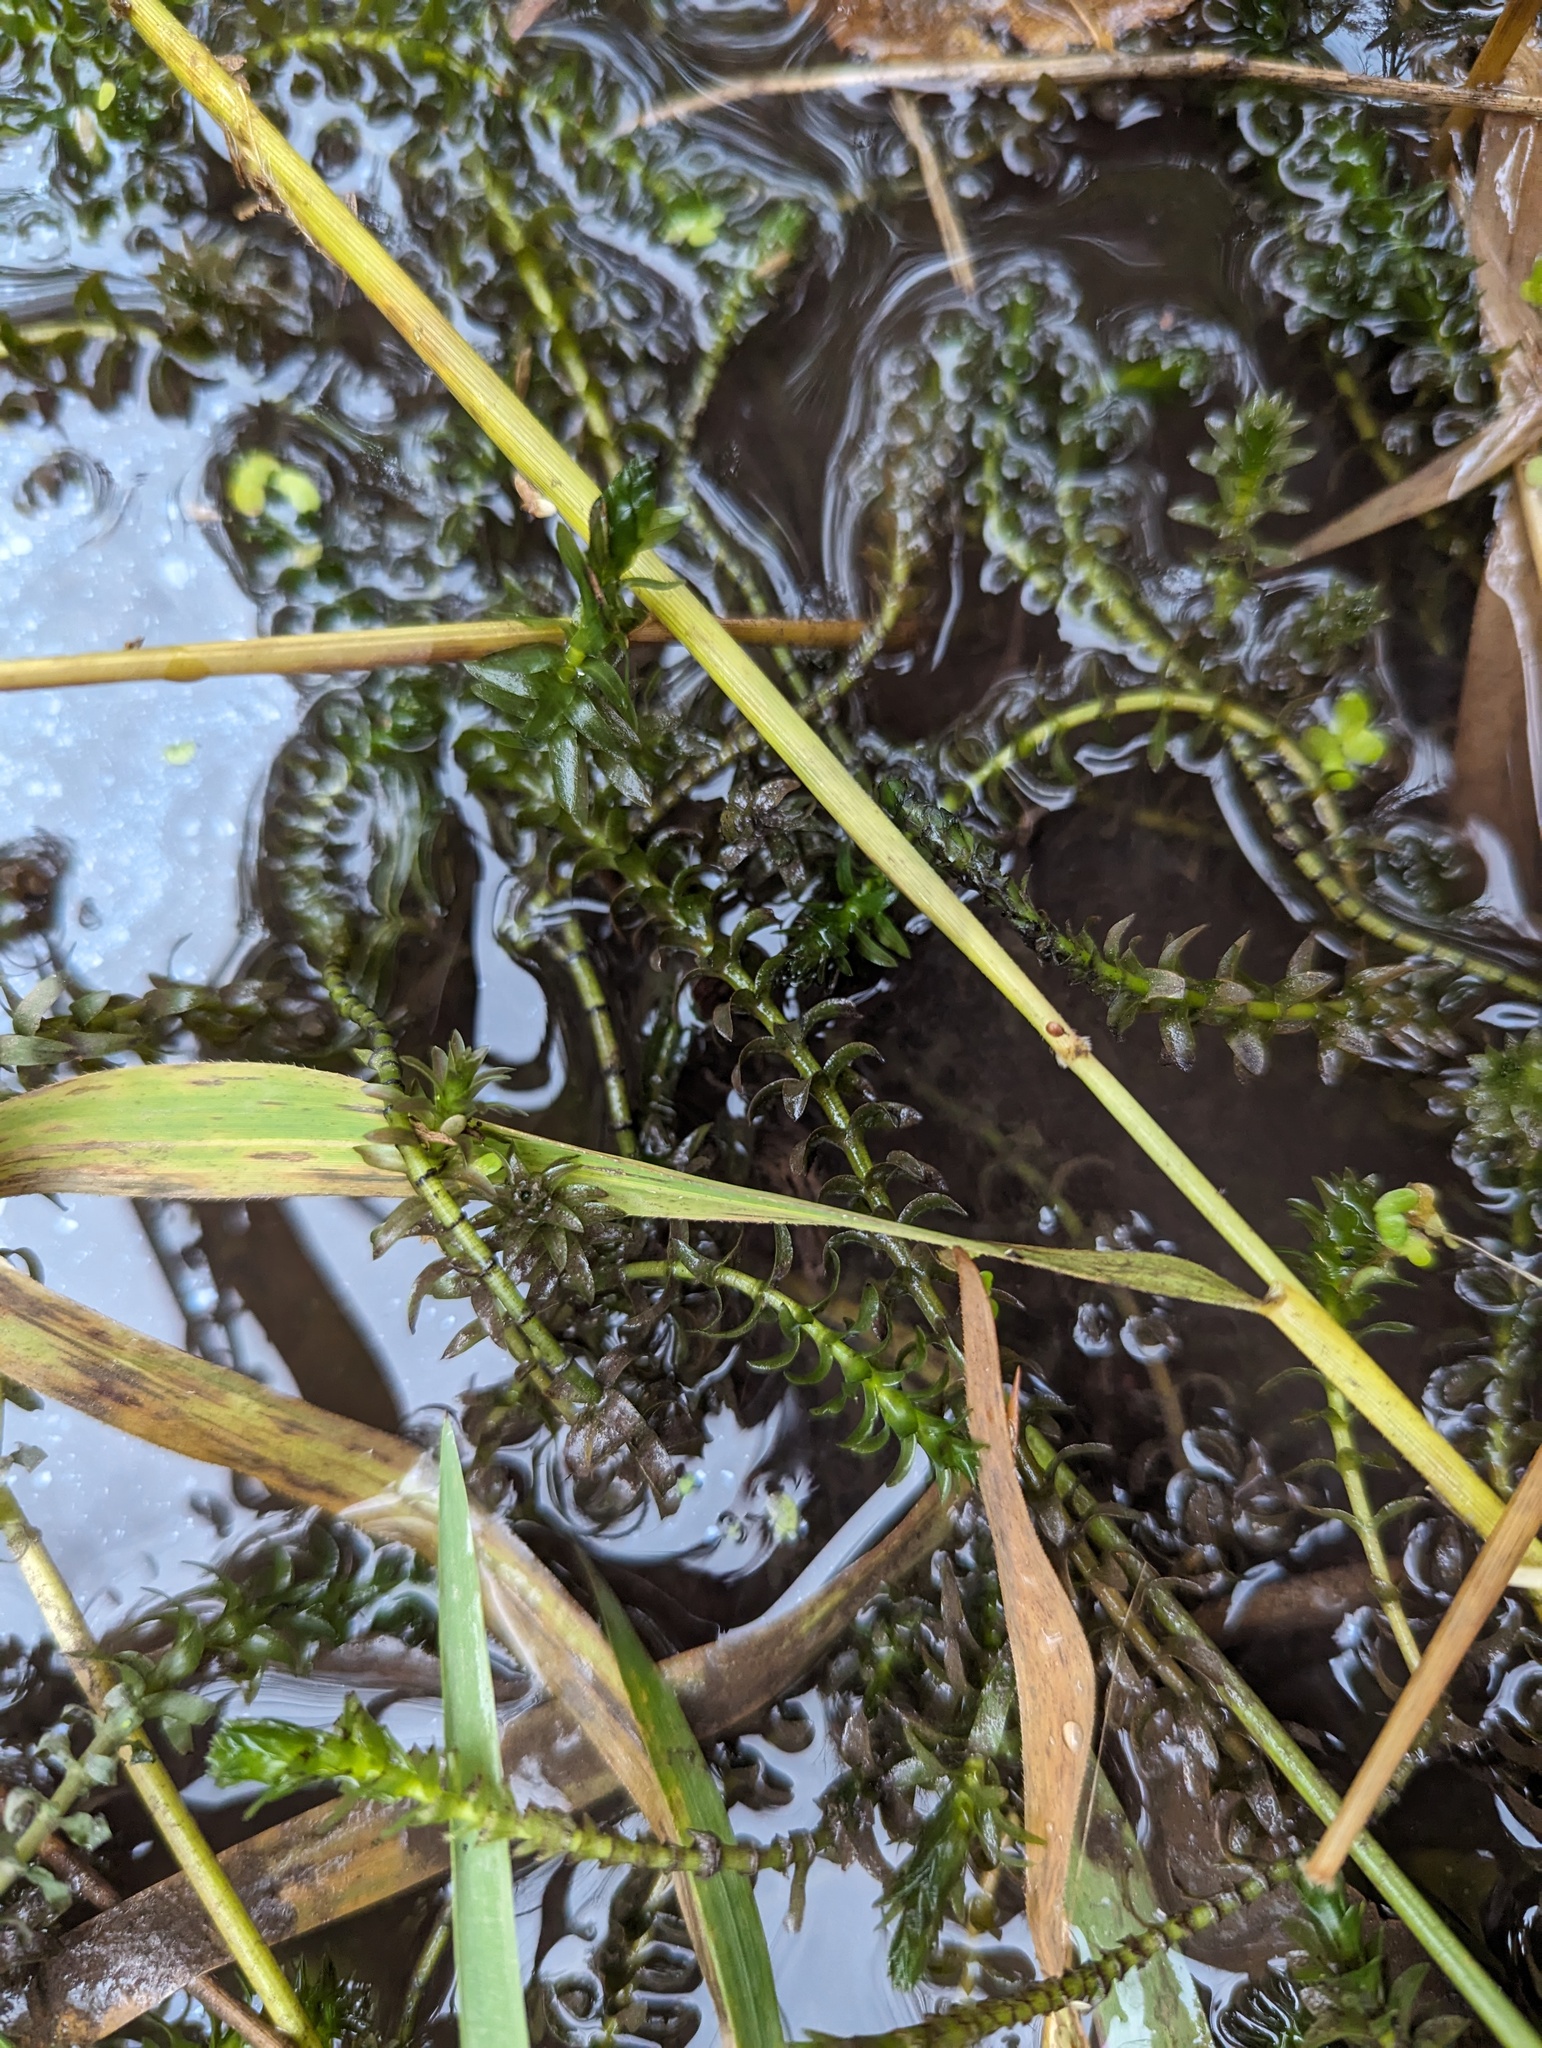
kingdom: Plantae
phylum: Tracheophyta
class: Liliopsida
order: Alismatales
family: Hydrocharitaceae
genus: Elodea
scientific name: Elodea canadensis
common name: Canadian waterweed
